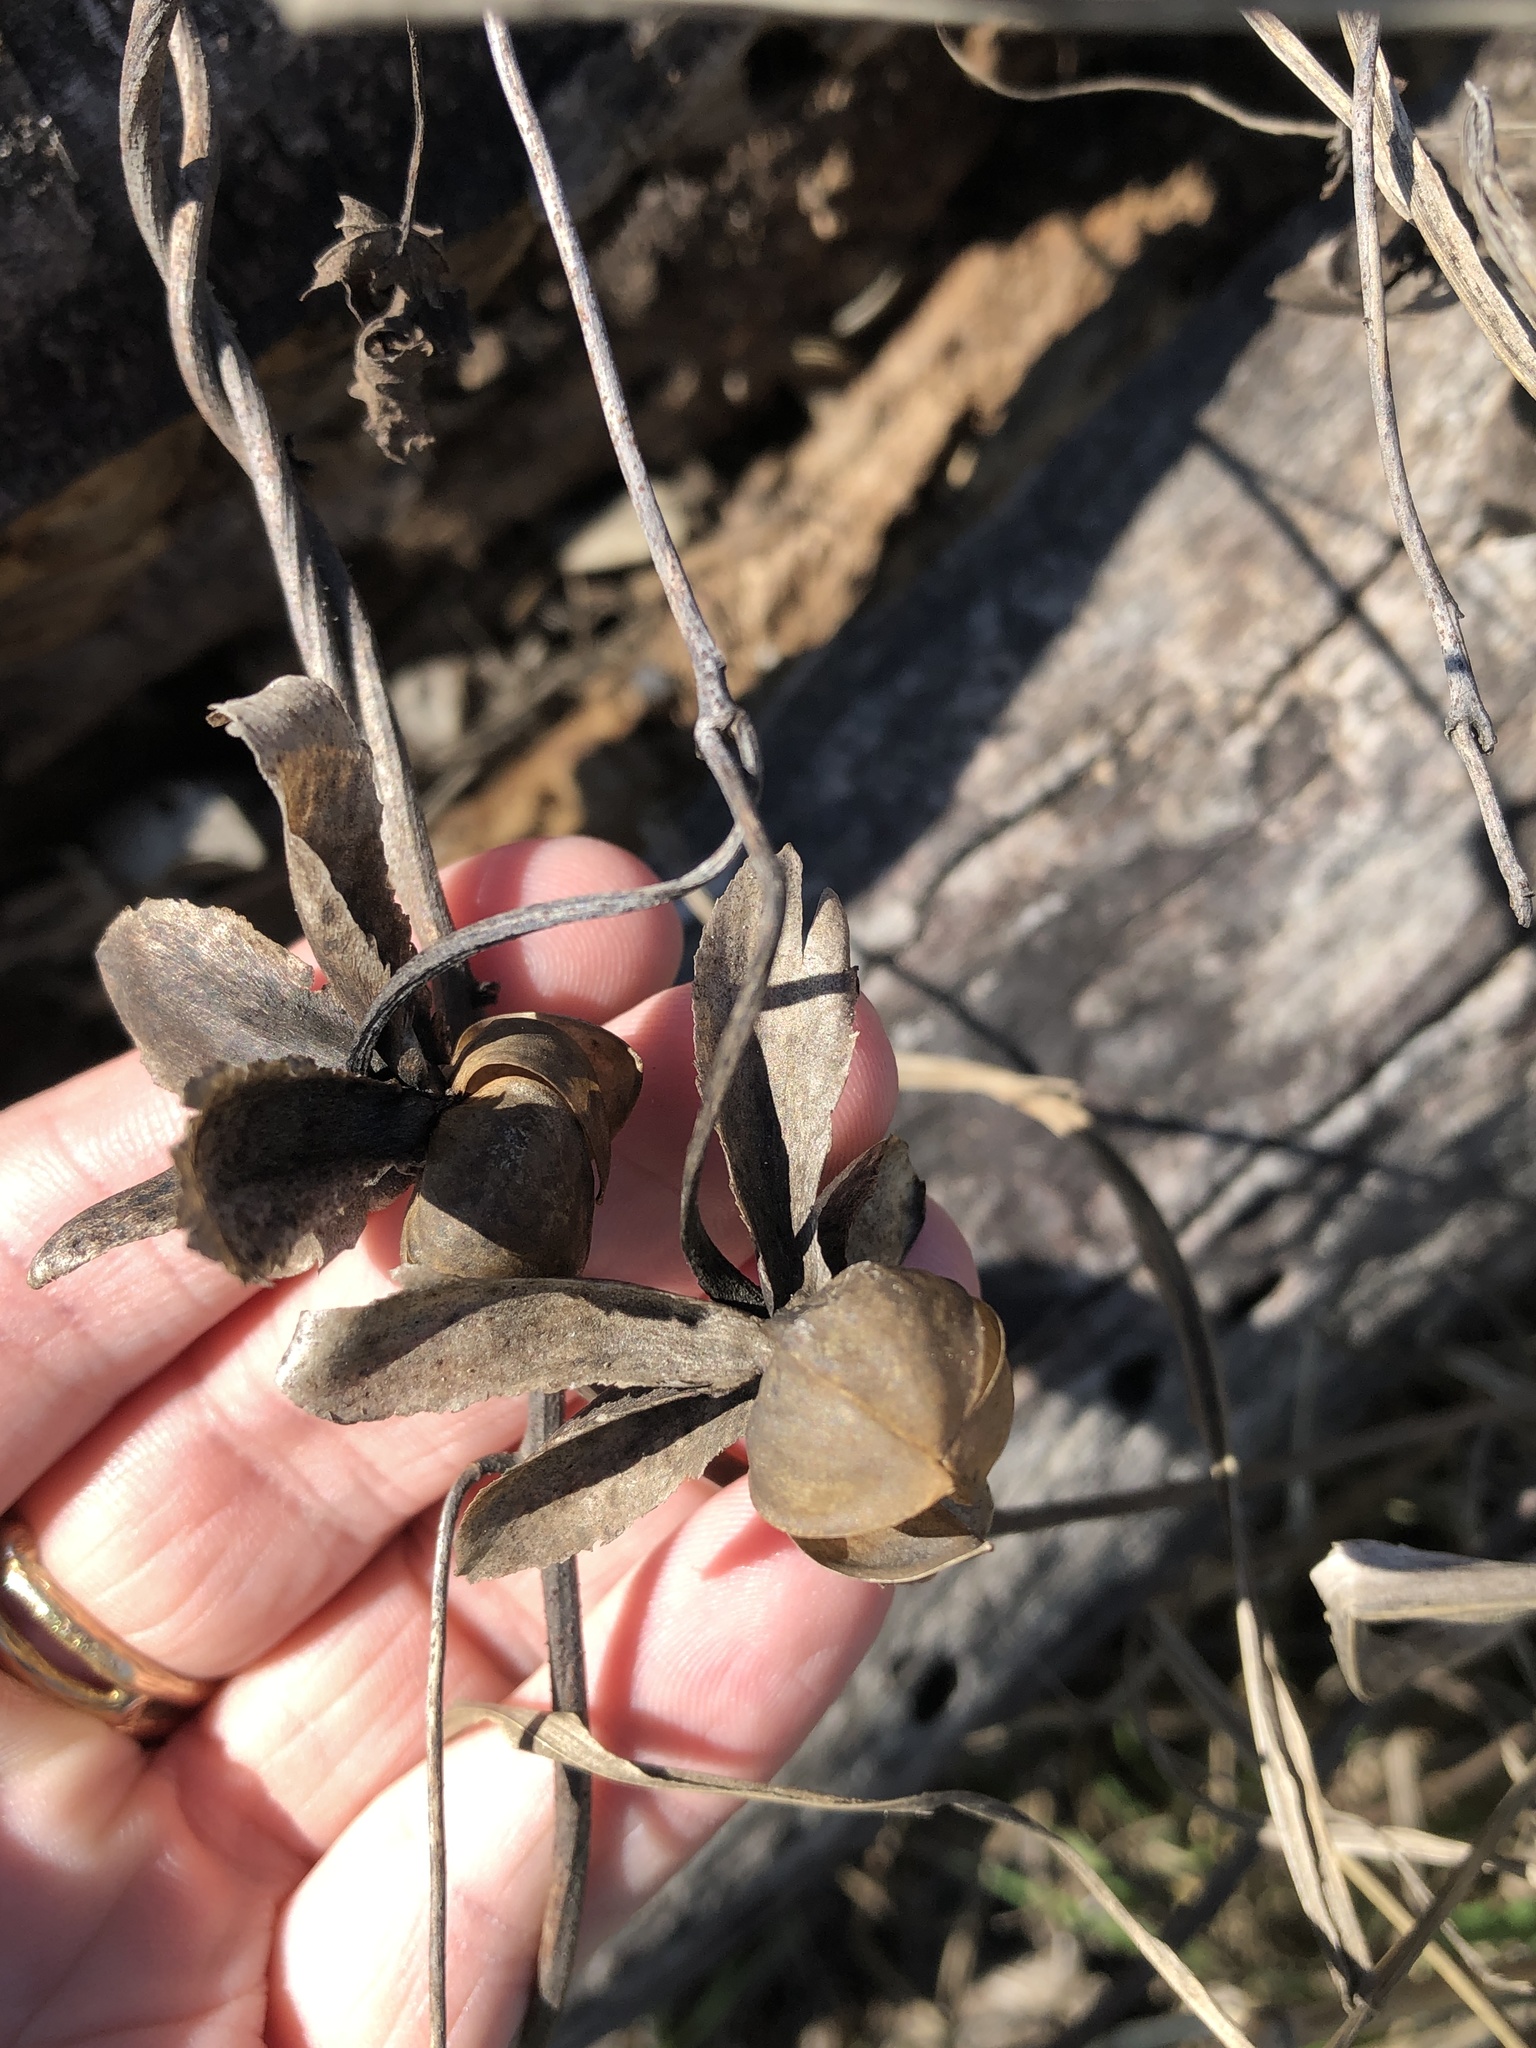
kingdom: Plantae
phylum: Tracheophyta
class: Magnoliopsida
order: Solanales
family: Convolvulaceae
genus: Distimake
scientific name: Distimake dissectus
